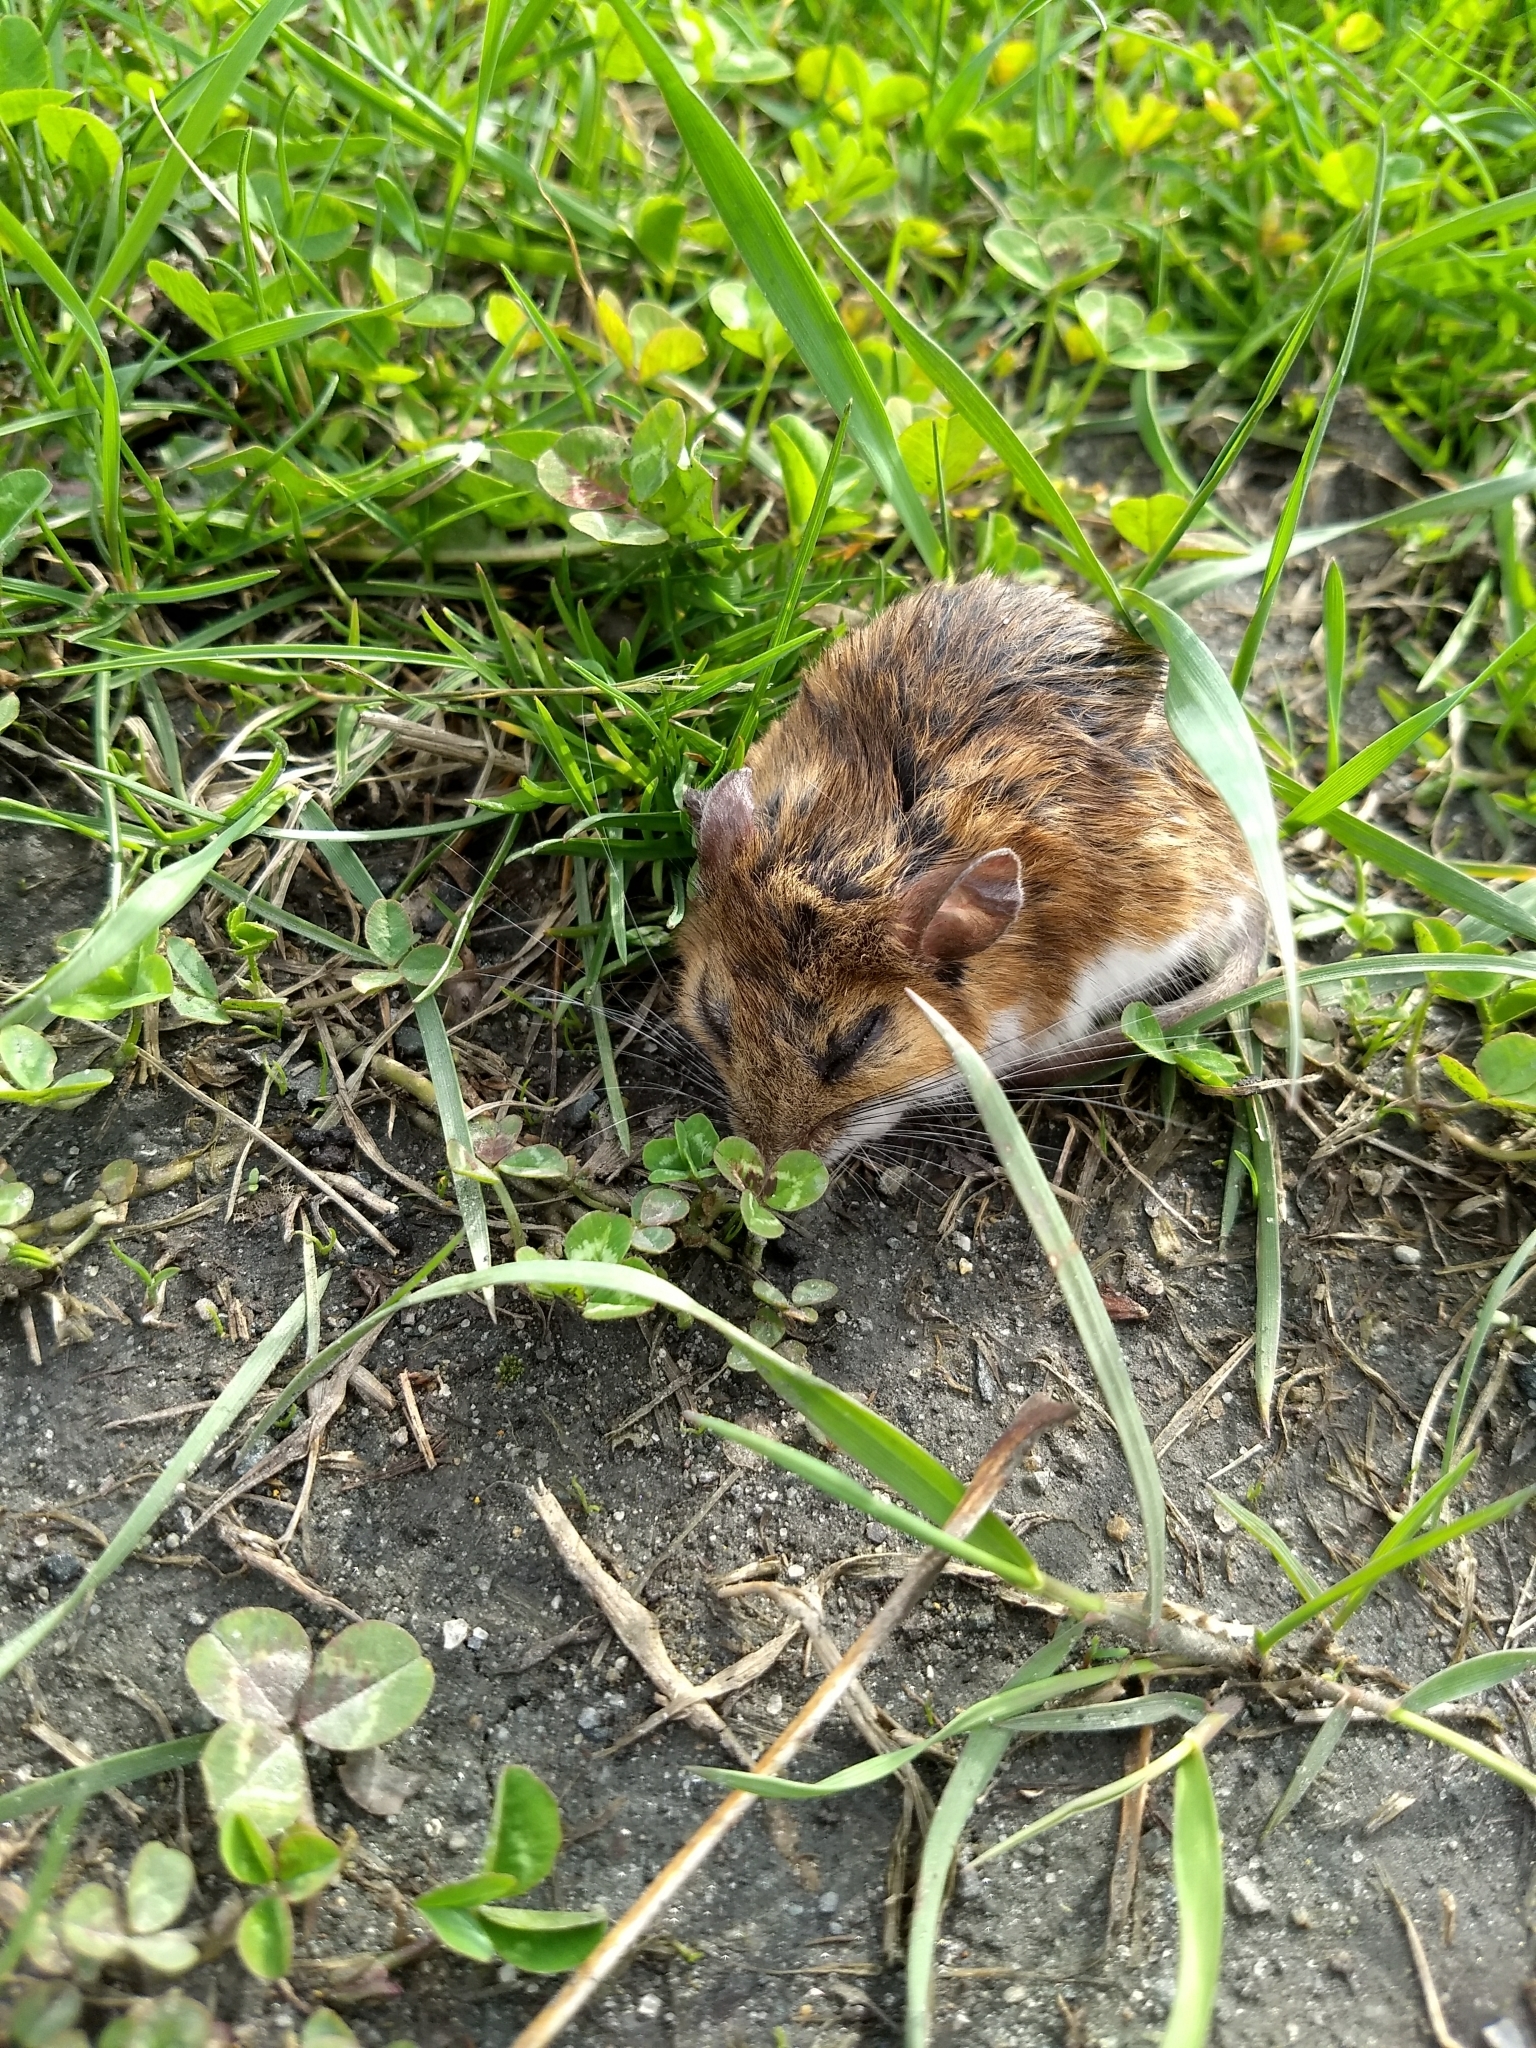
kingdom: Animalia
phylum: Chordata
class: Mammalia
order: Rodentia
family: Cricetidae
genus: Peromyscus
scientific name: Peromyscus
